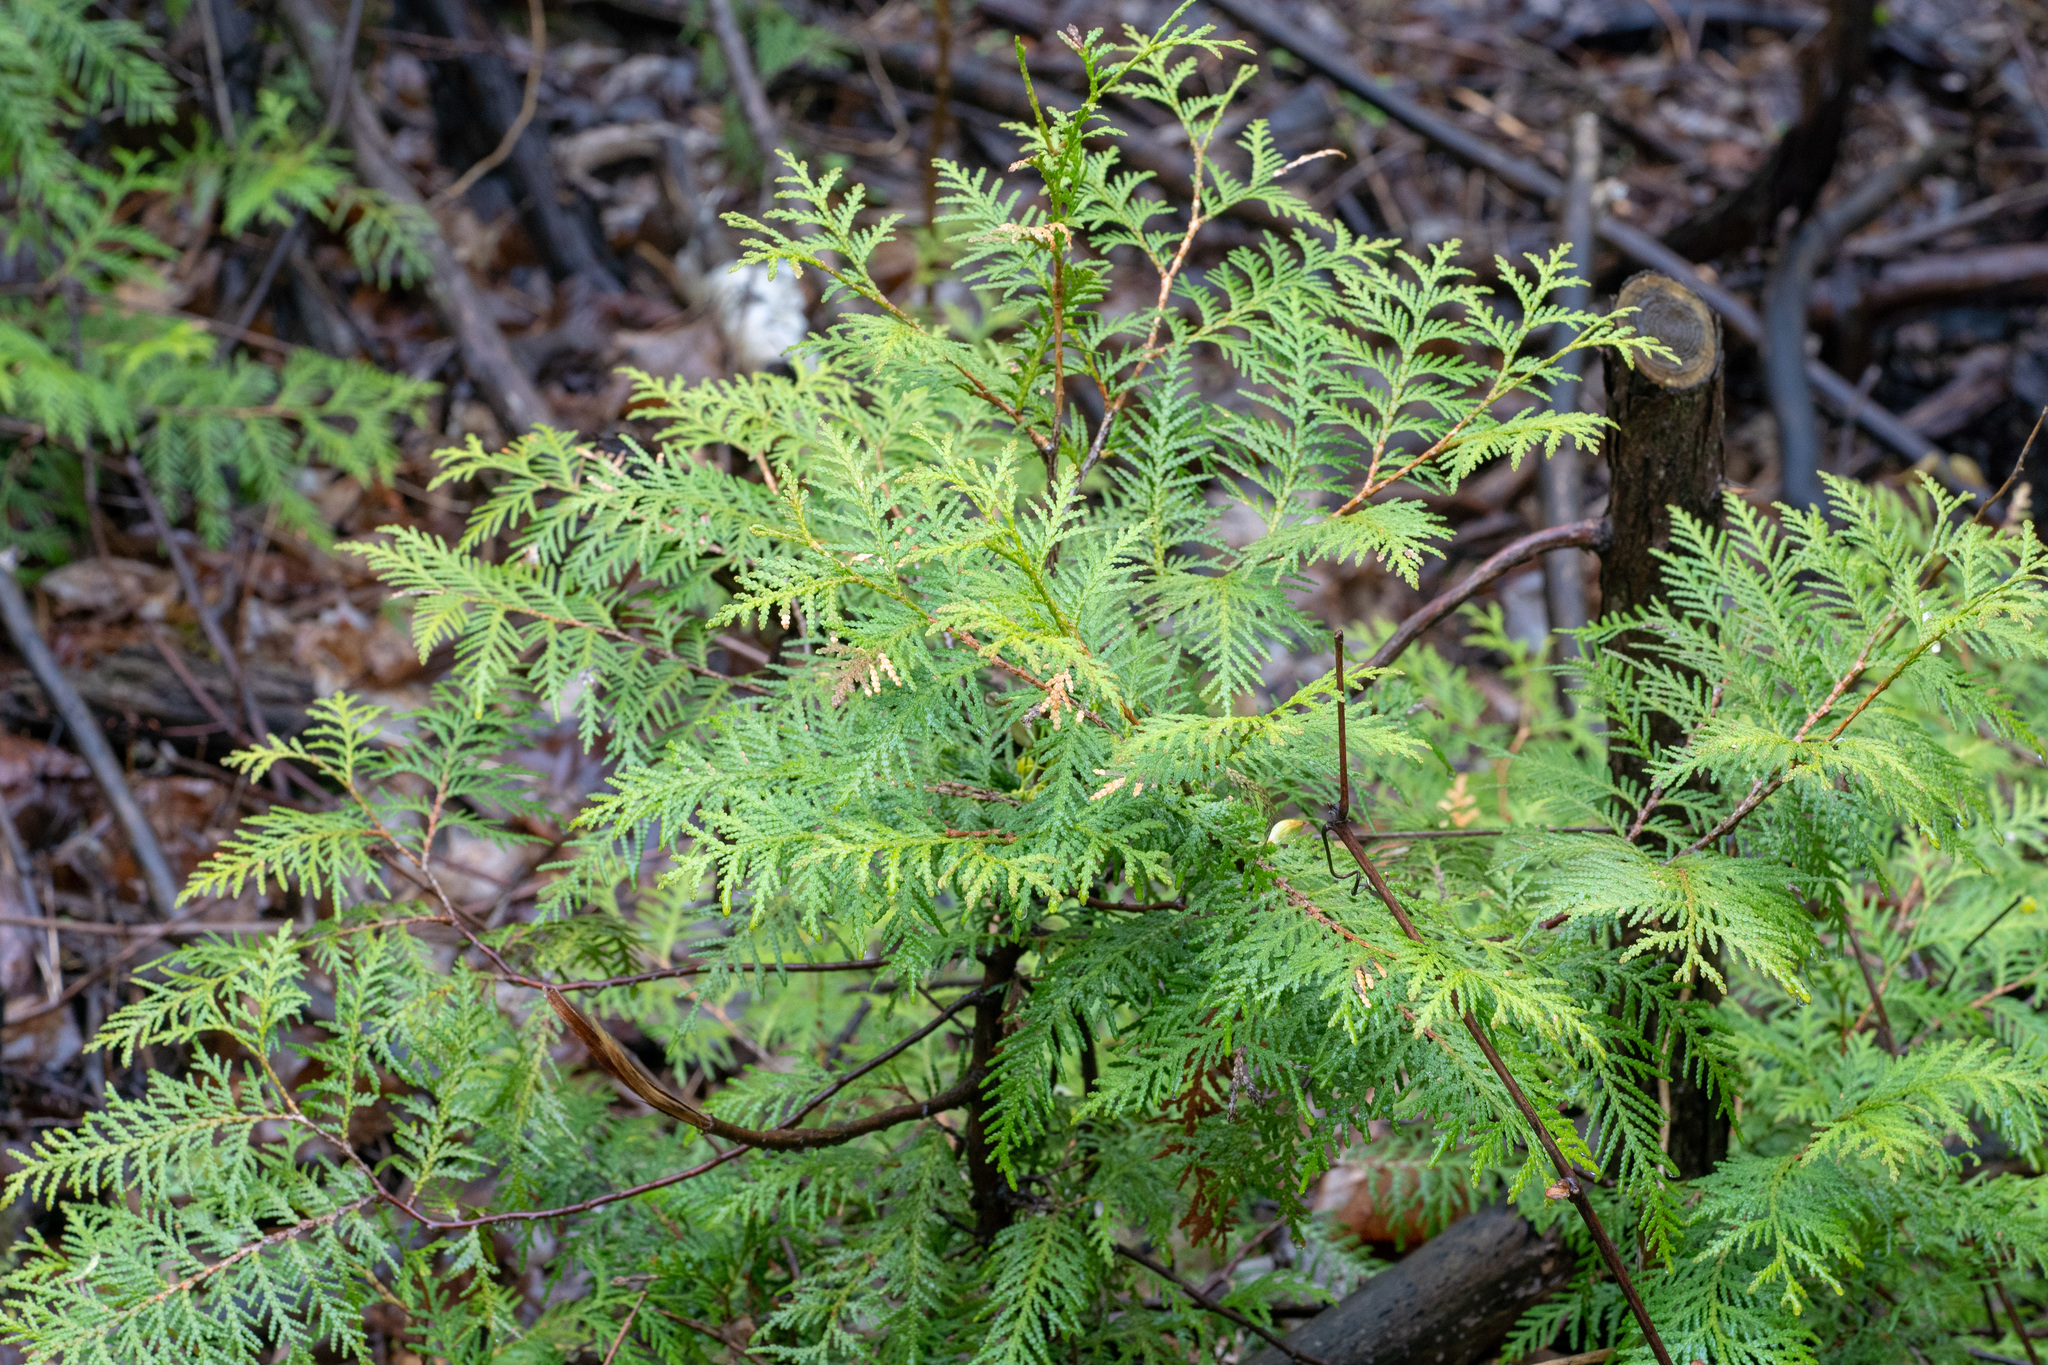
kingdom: Plantae
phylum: Tracheophyta
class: Pinopsida
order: Pinales
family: Cupressaceae
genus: Thuja
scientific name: Thuja occidentalis
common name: Northern white-cedar
